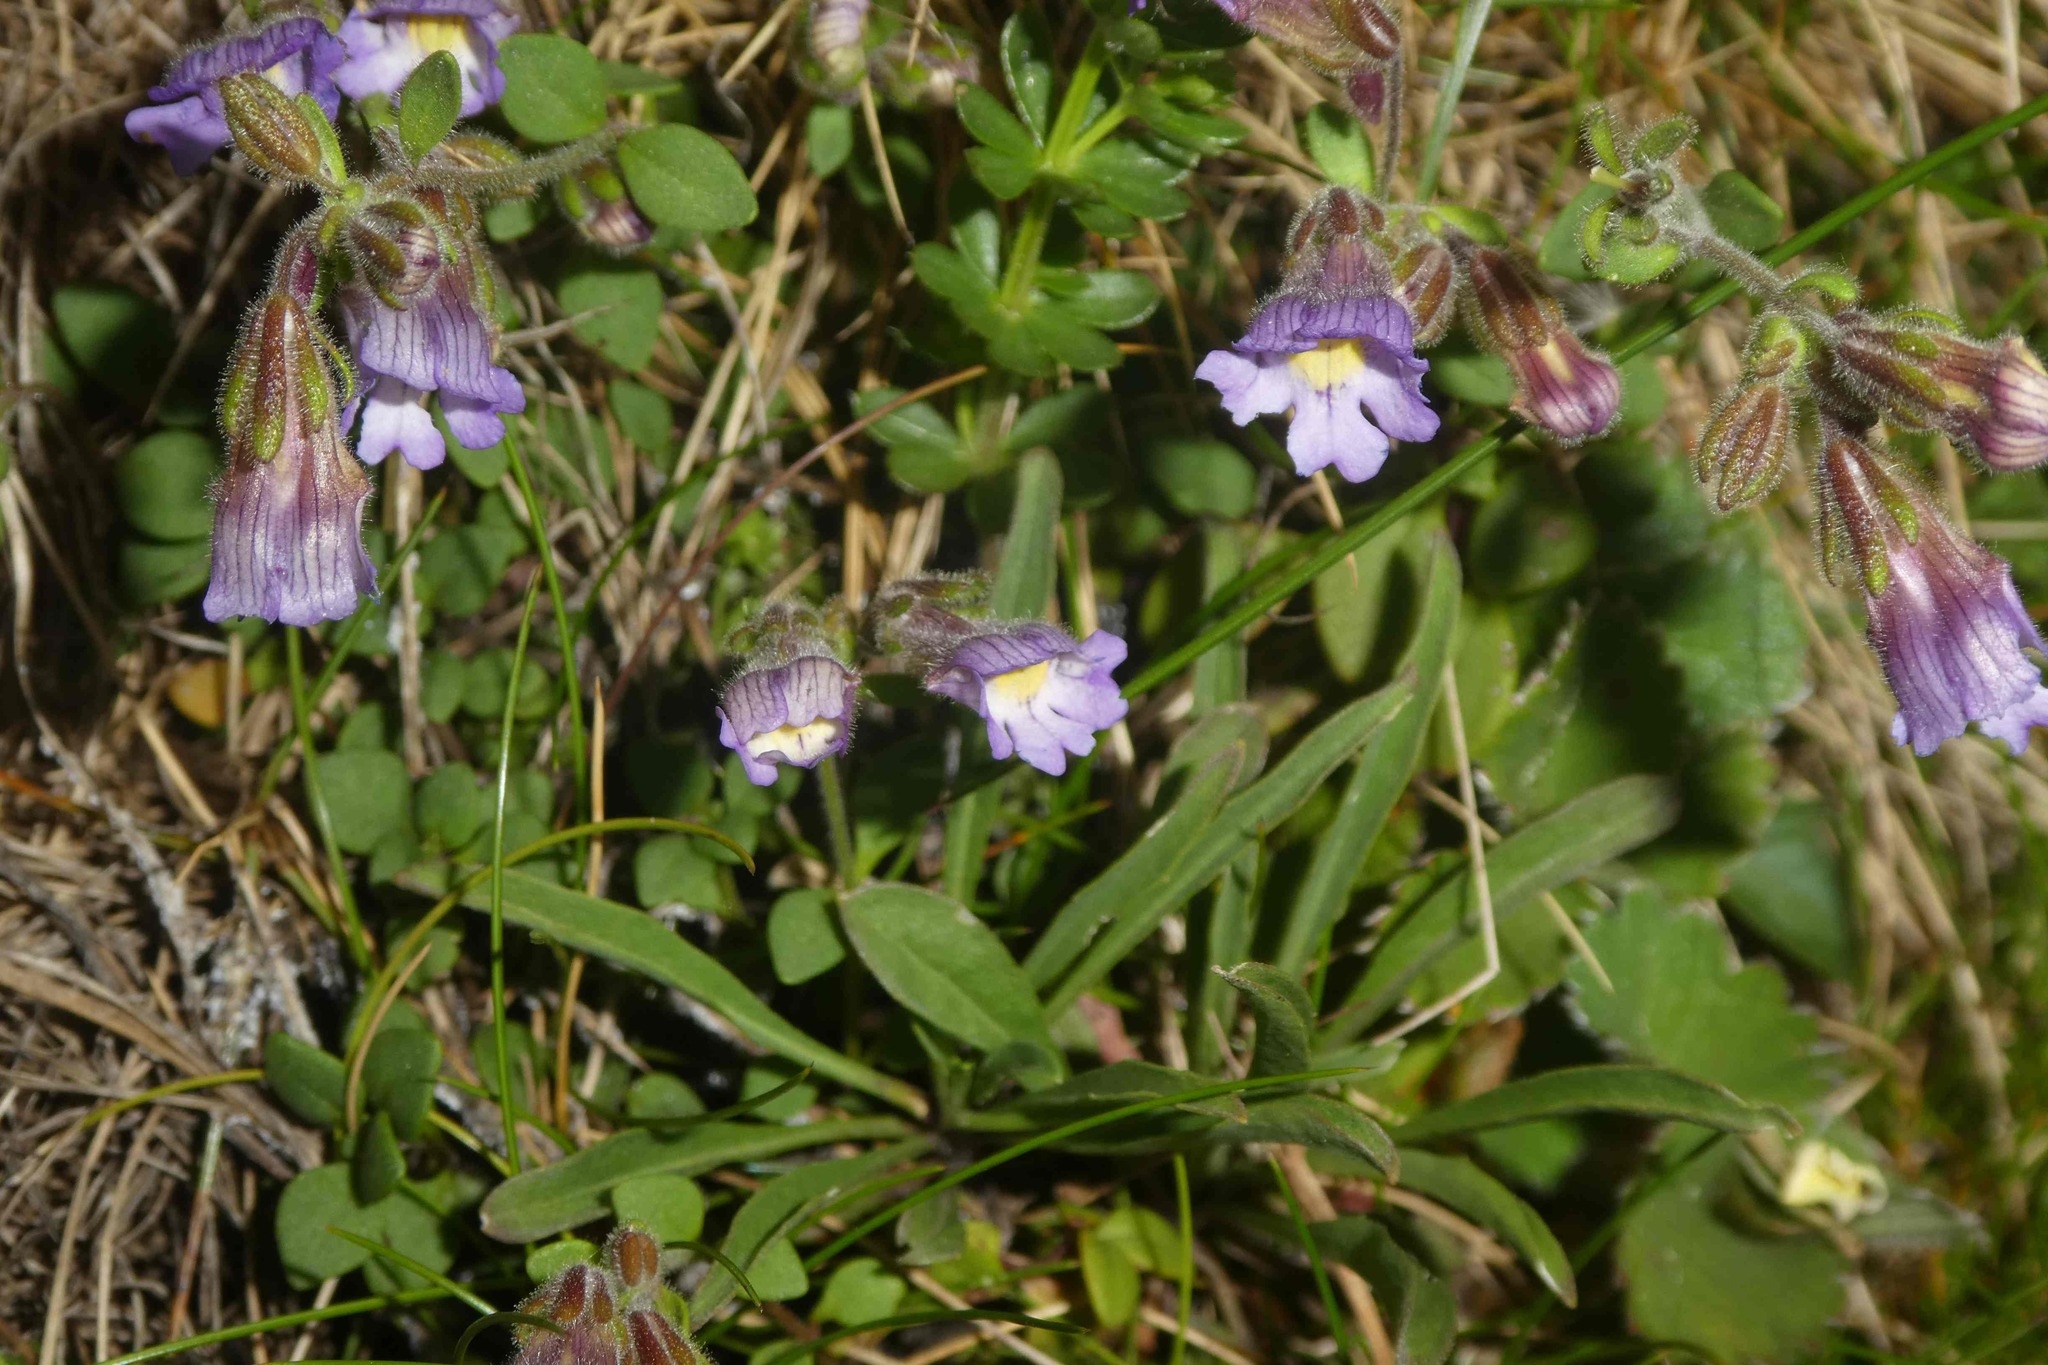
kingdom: Plantae
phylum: Tracheophyta
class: Magnoliopsida
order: Lamiales
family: Plantaginaceae
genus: Chaenorhinum
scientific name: Chaenorhinum origanifolium
